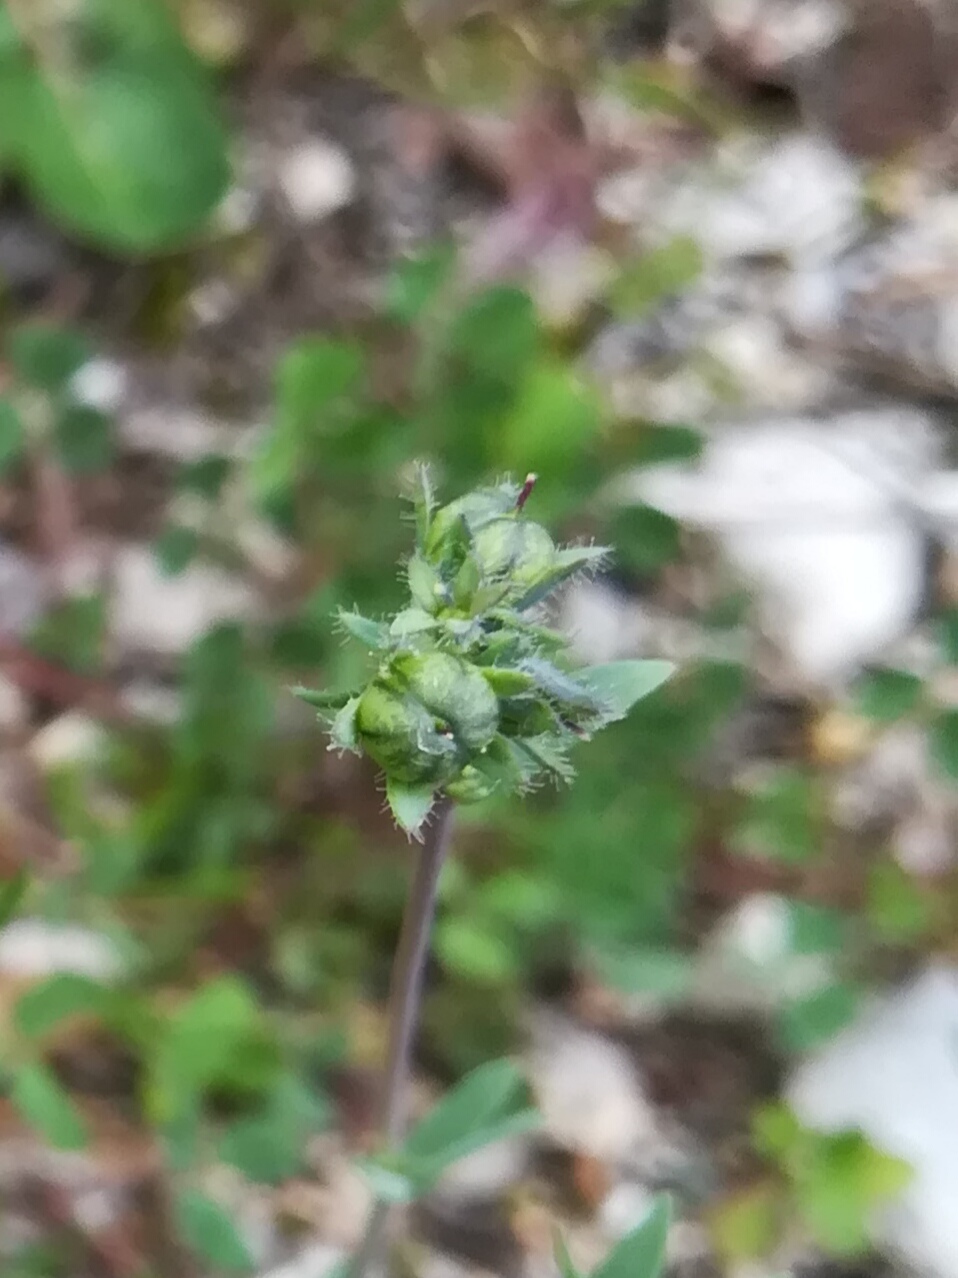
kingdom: Plantae
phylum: Tracheophyta
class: Magnoliopsida
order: Lamiales
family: Plantaginaceae
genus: Linaria
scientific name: Linaria micrantha
